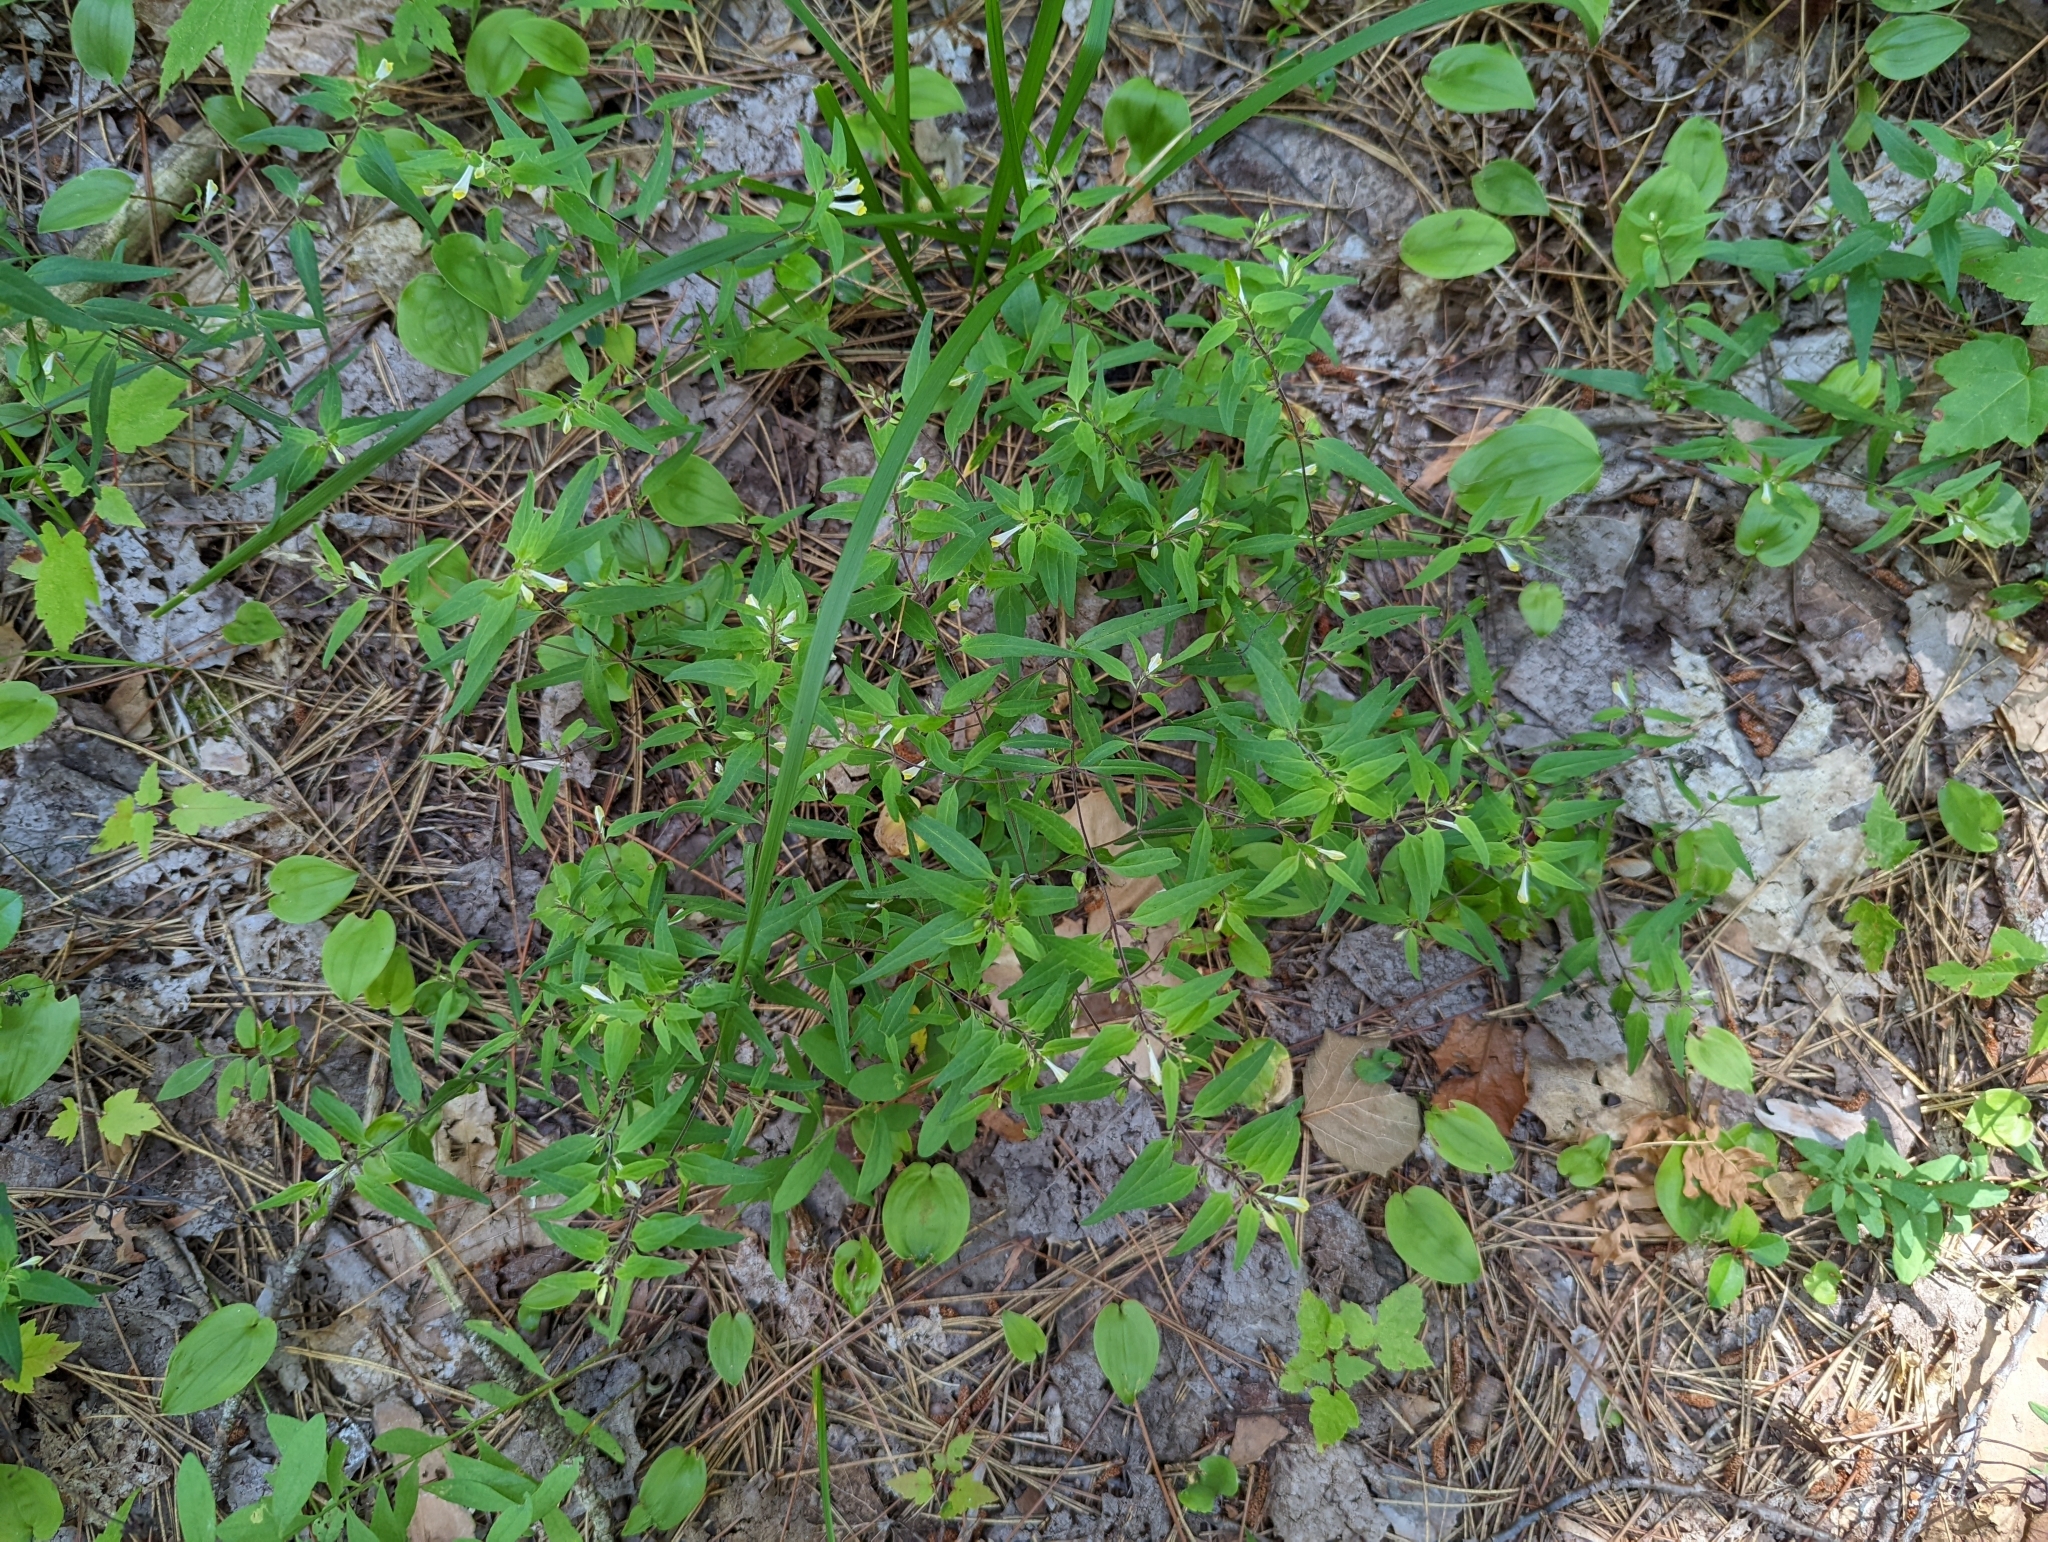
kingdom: Plantae
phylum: Tracheophyta
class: Magnoliopsida
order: Lamiales
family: Orobanchaceae
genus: Melampyrum
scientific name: Melampyrum lineare
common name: American cow-wheat
